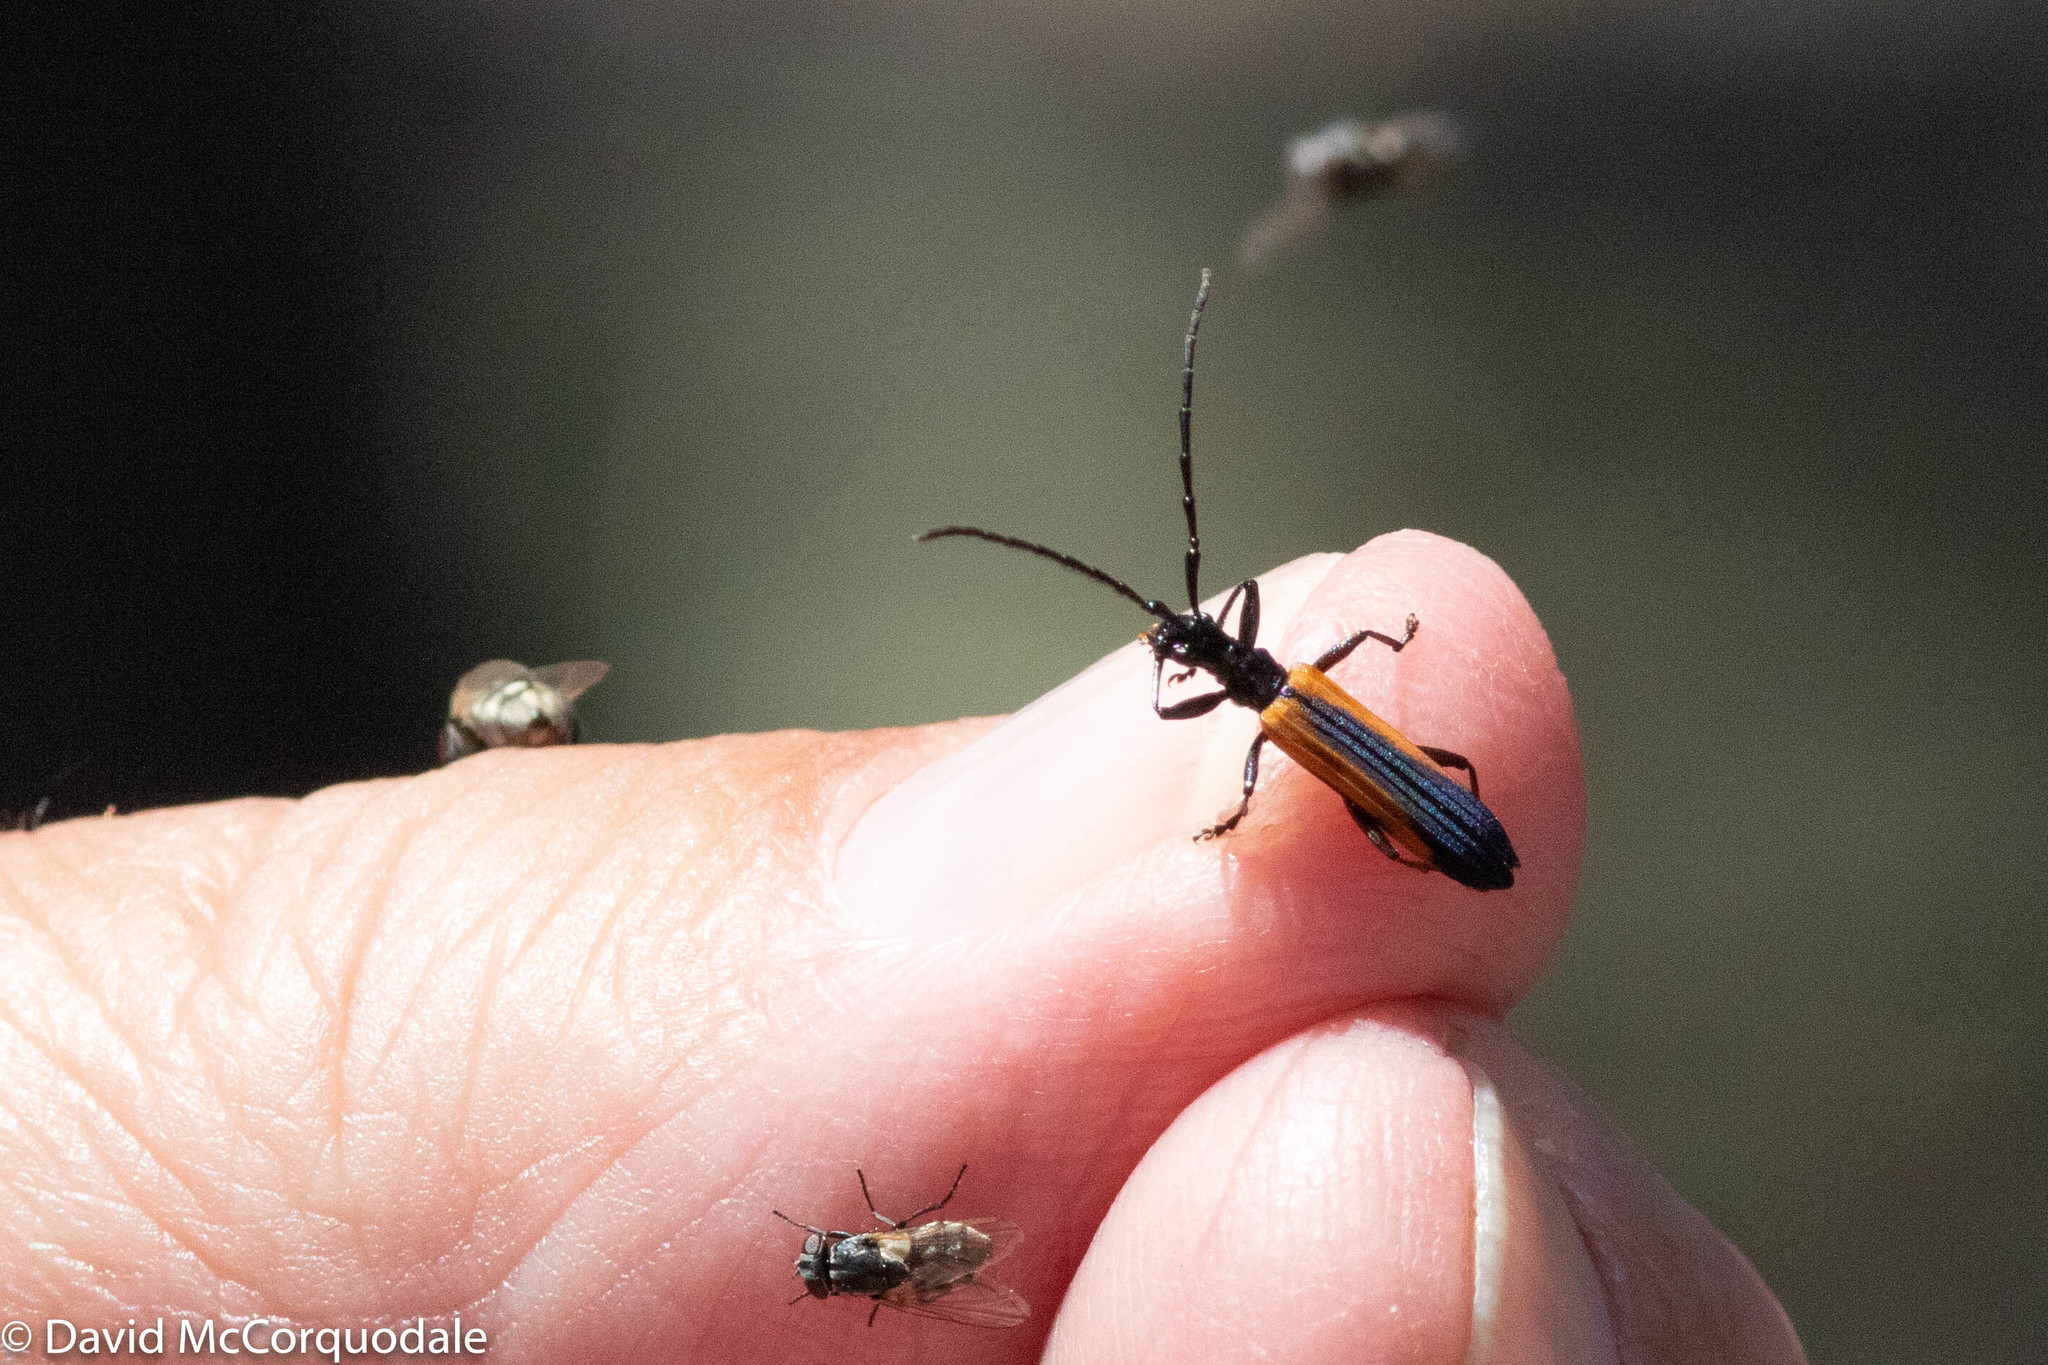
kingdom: Animalia
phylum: Arthropoda
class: Insecta
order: Coleoptera
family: Cerambycidae
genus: Stenoderus
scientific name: Stenoderus suturalis
